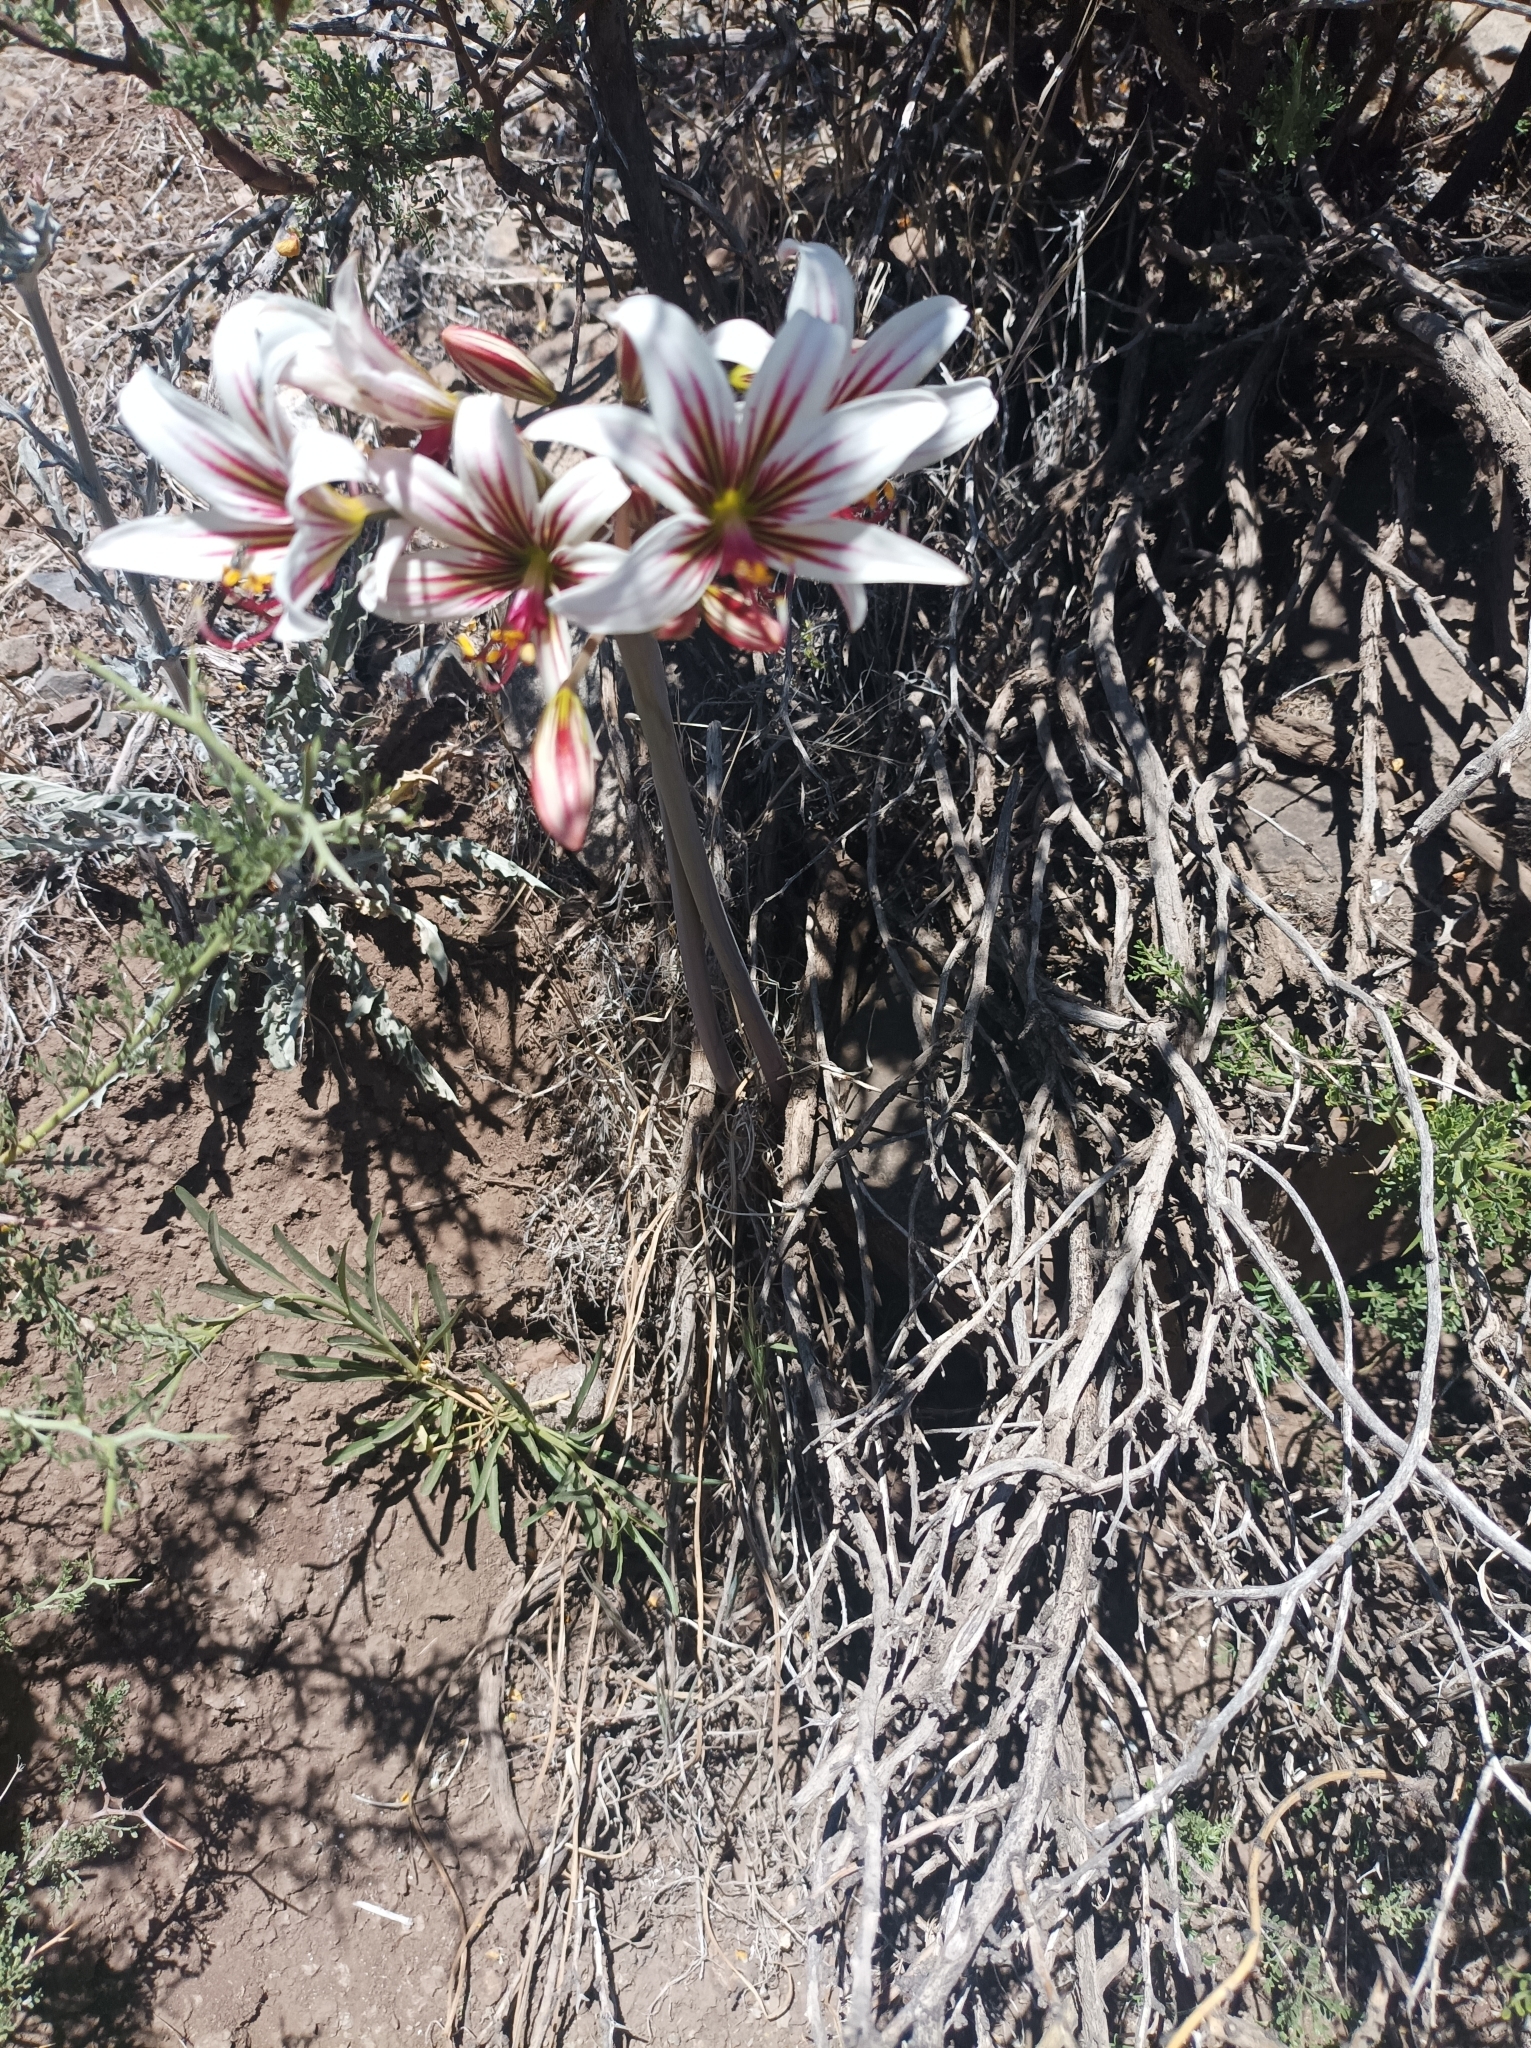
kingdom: Plantae
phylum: Tracheophyta
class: Liliopsida
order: Asparagales
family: Amaryllidaceae
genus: Phycella
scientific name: Phycella arzae
